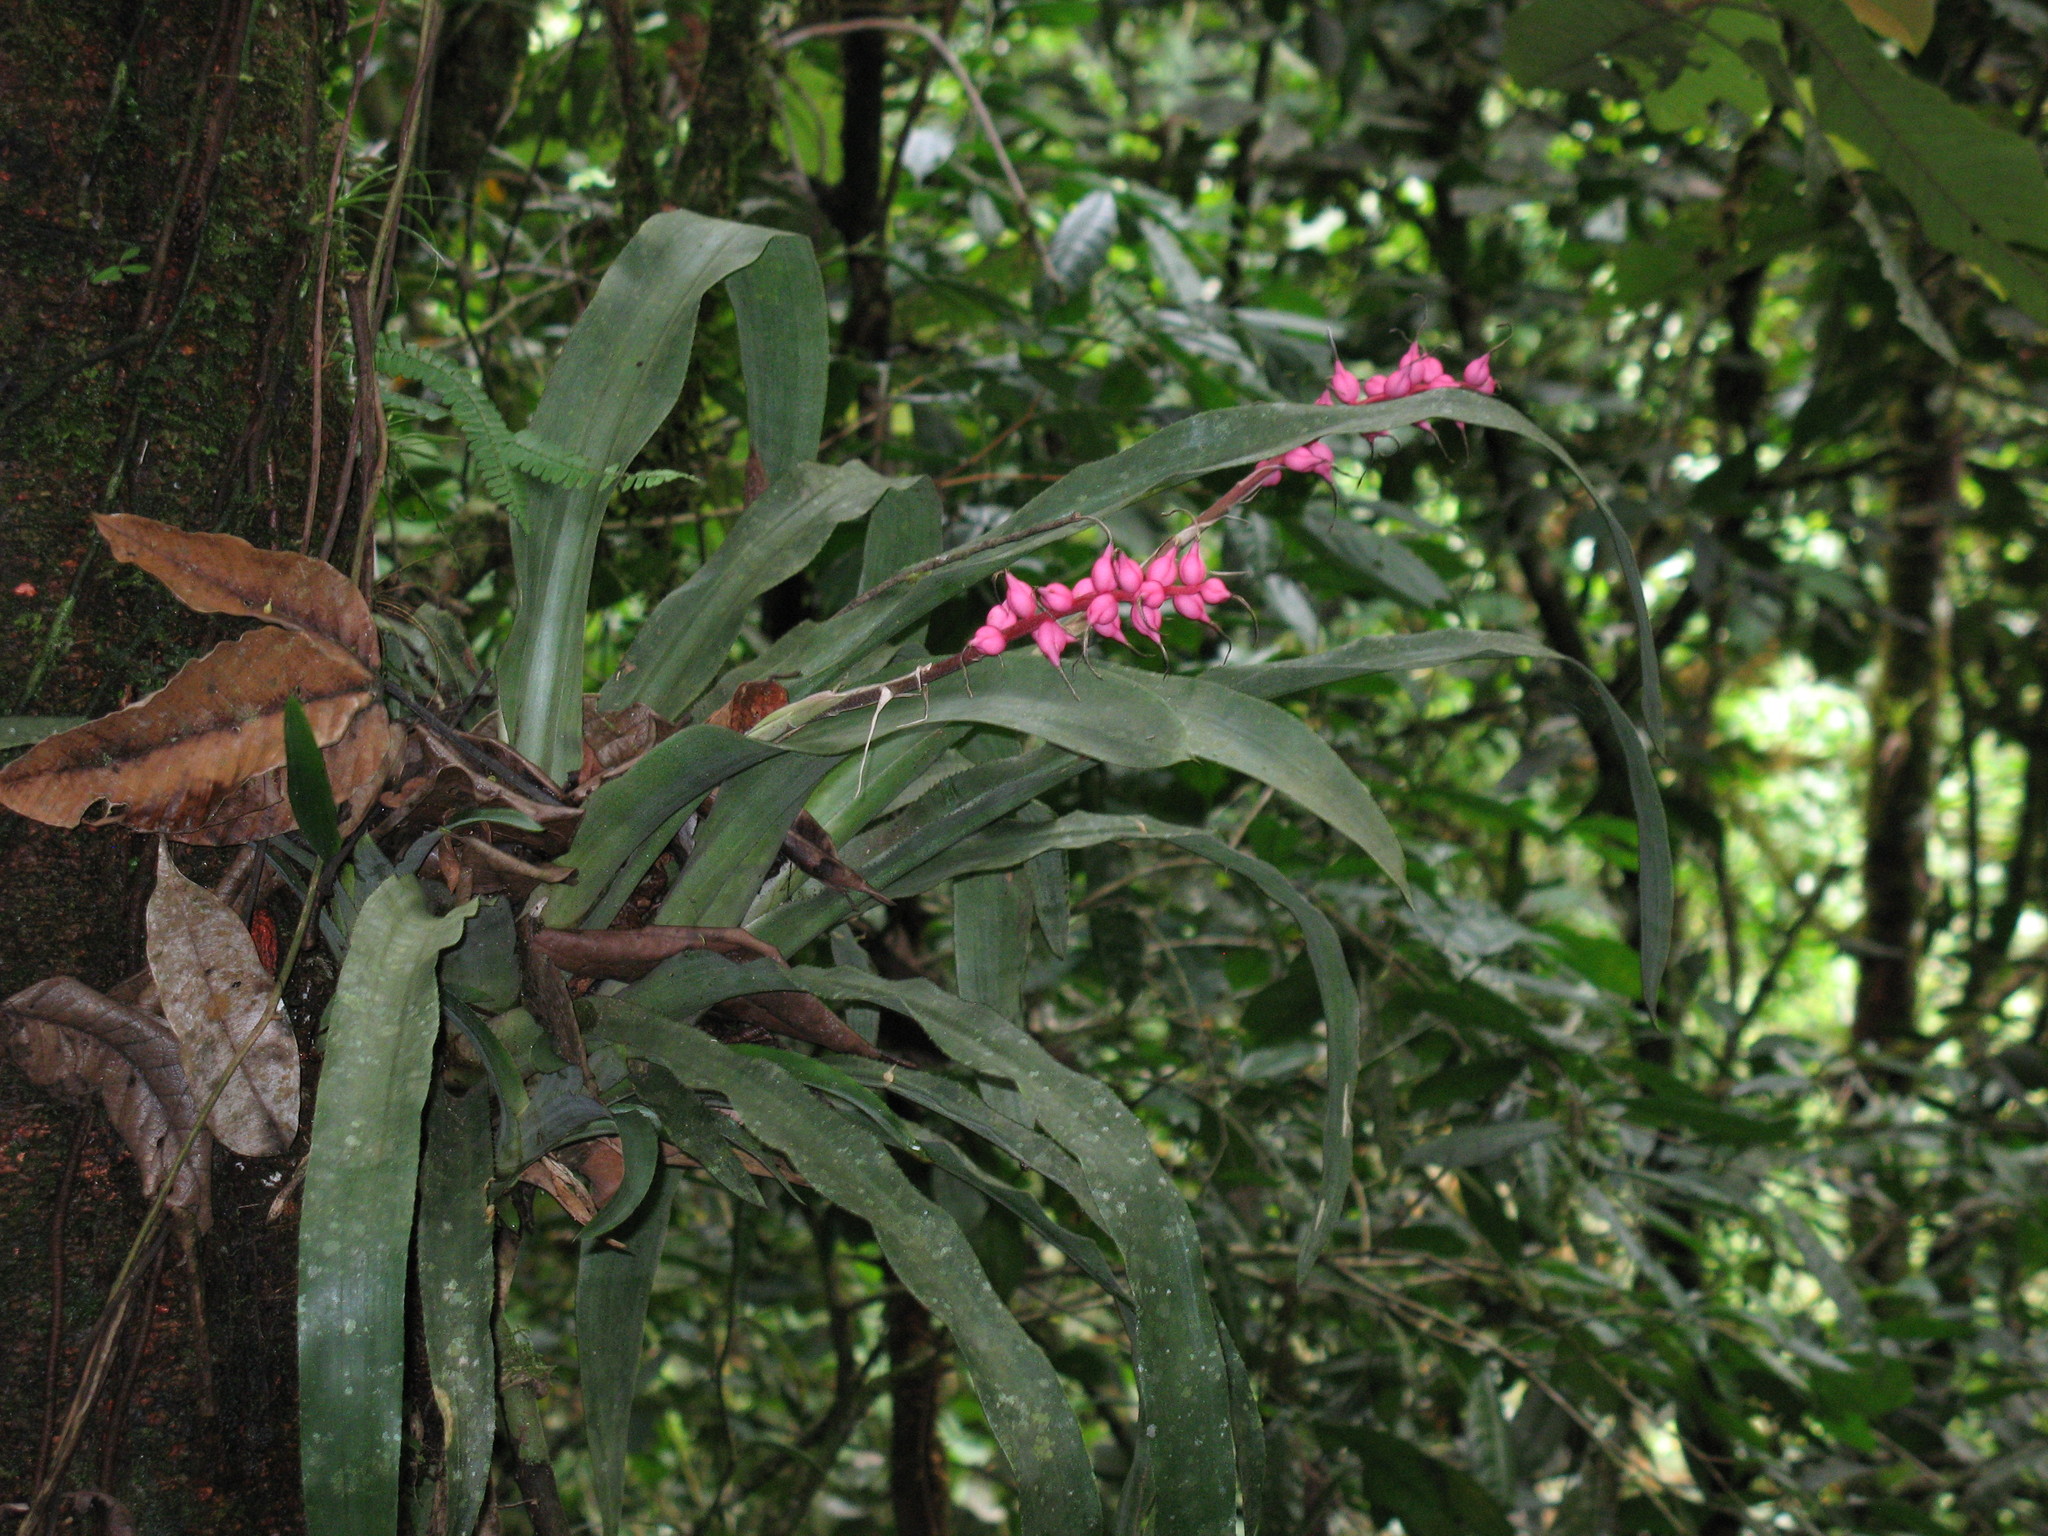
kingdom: Plantae
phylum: Tracheophyta
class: Liliopsida
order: Poales
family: Bromeliaceae
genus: Ronnbergia
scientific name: Ronnbergia drakeana
